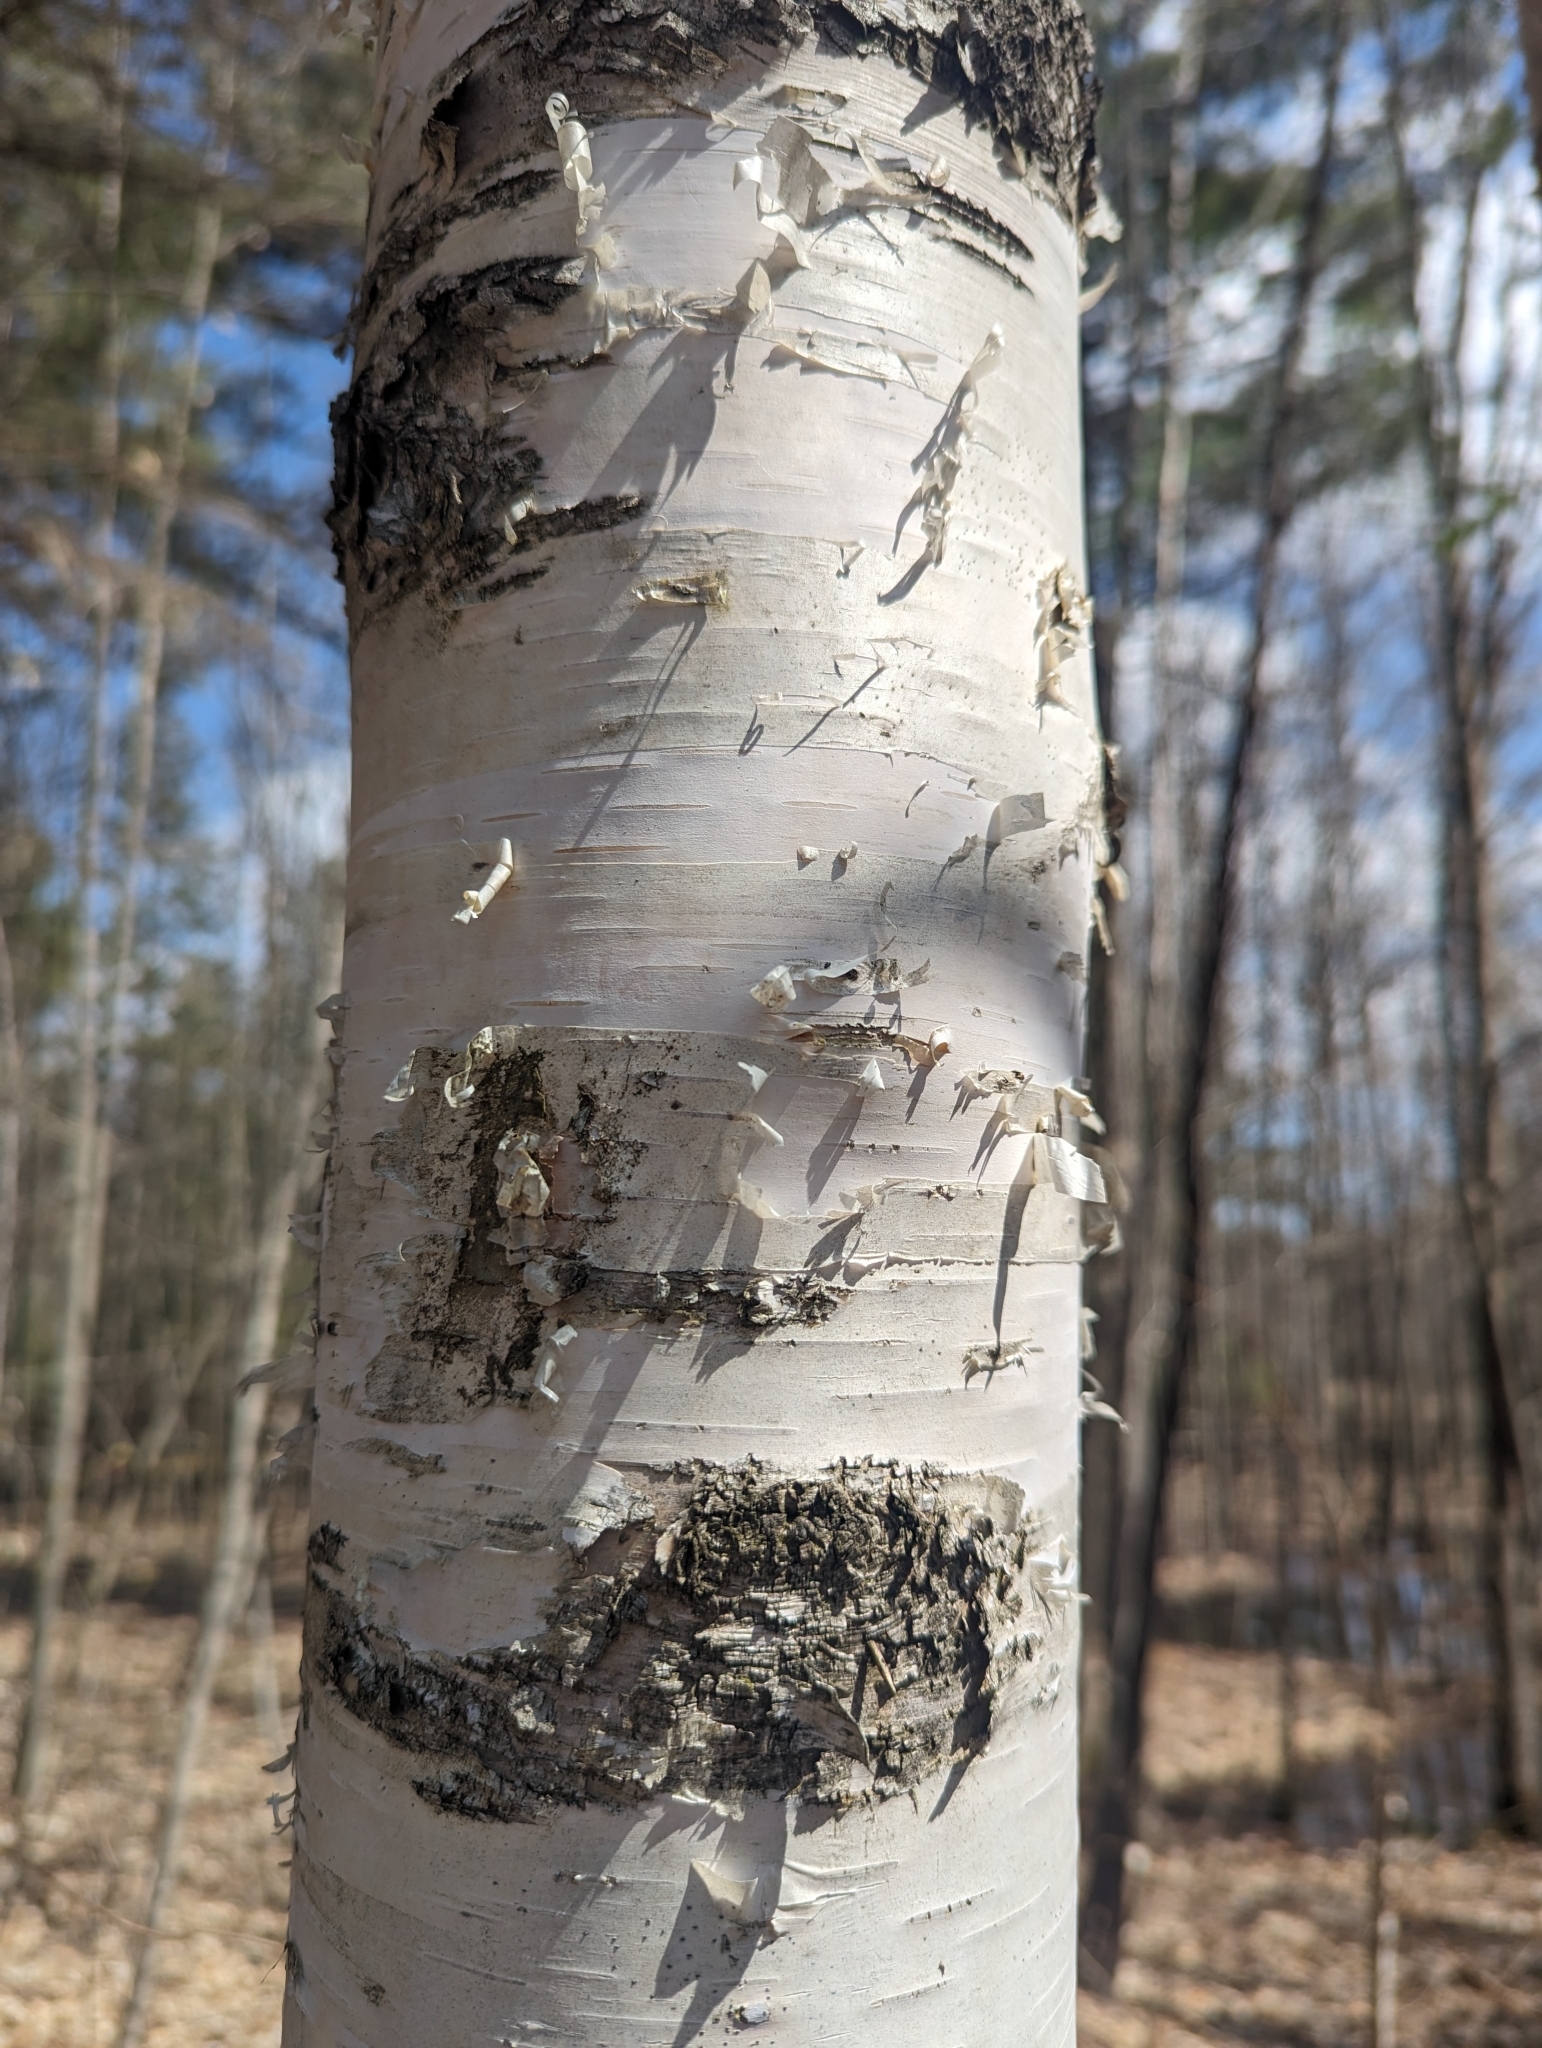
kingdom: Plantae
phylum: Tracheophyta
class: Magnoliopsida
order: Fagales
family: Betulaceae
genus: Betula
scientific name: Betula papyrifera
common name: Paper birch
